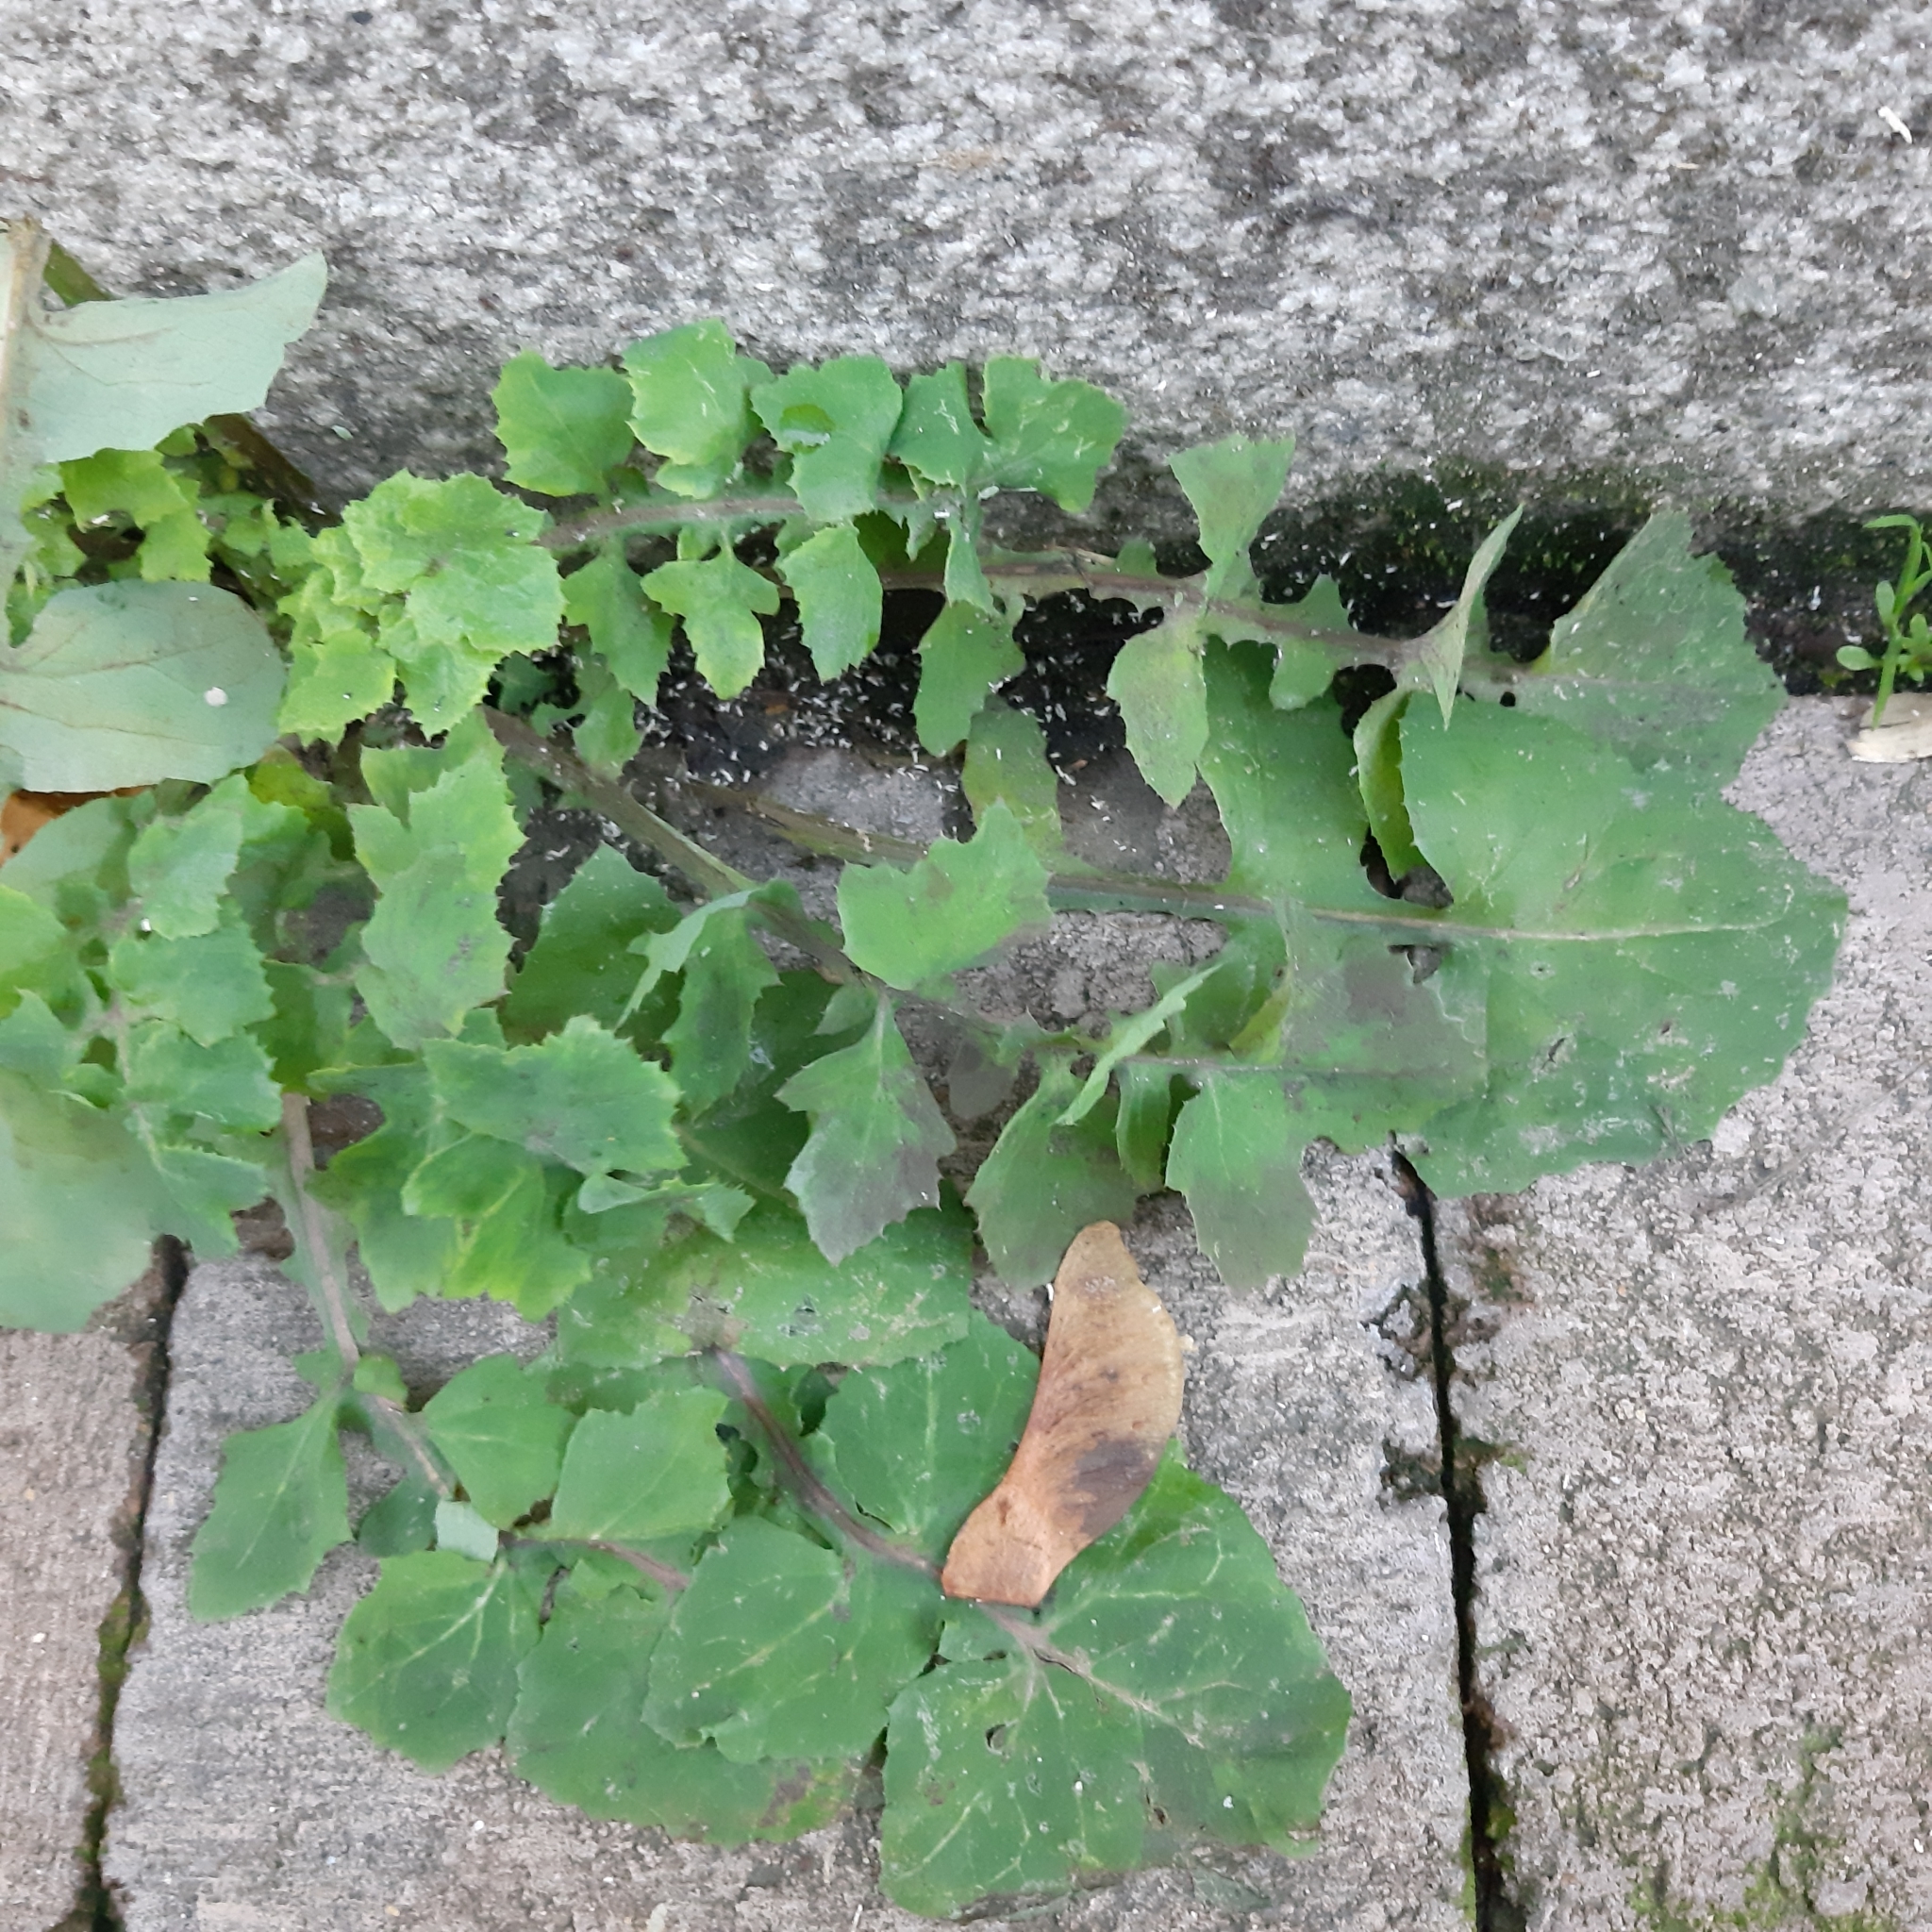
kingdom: Plantae
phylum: Tracheophyta
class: Magnoliopsida
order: Asterales
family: Asteraceae
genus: Sonchus
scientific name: Sonchus oleraceus
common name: Common sowthistle
